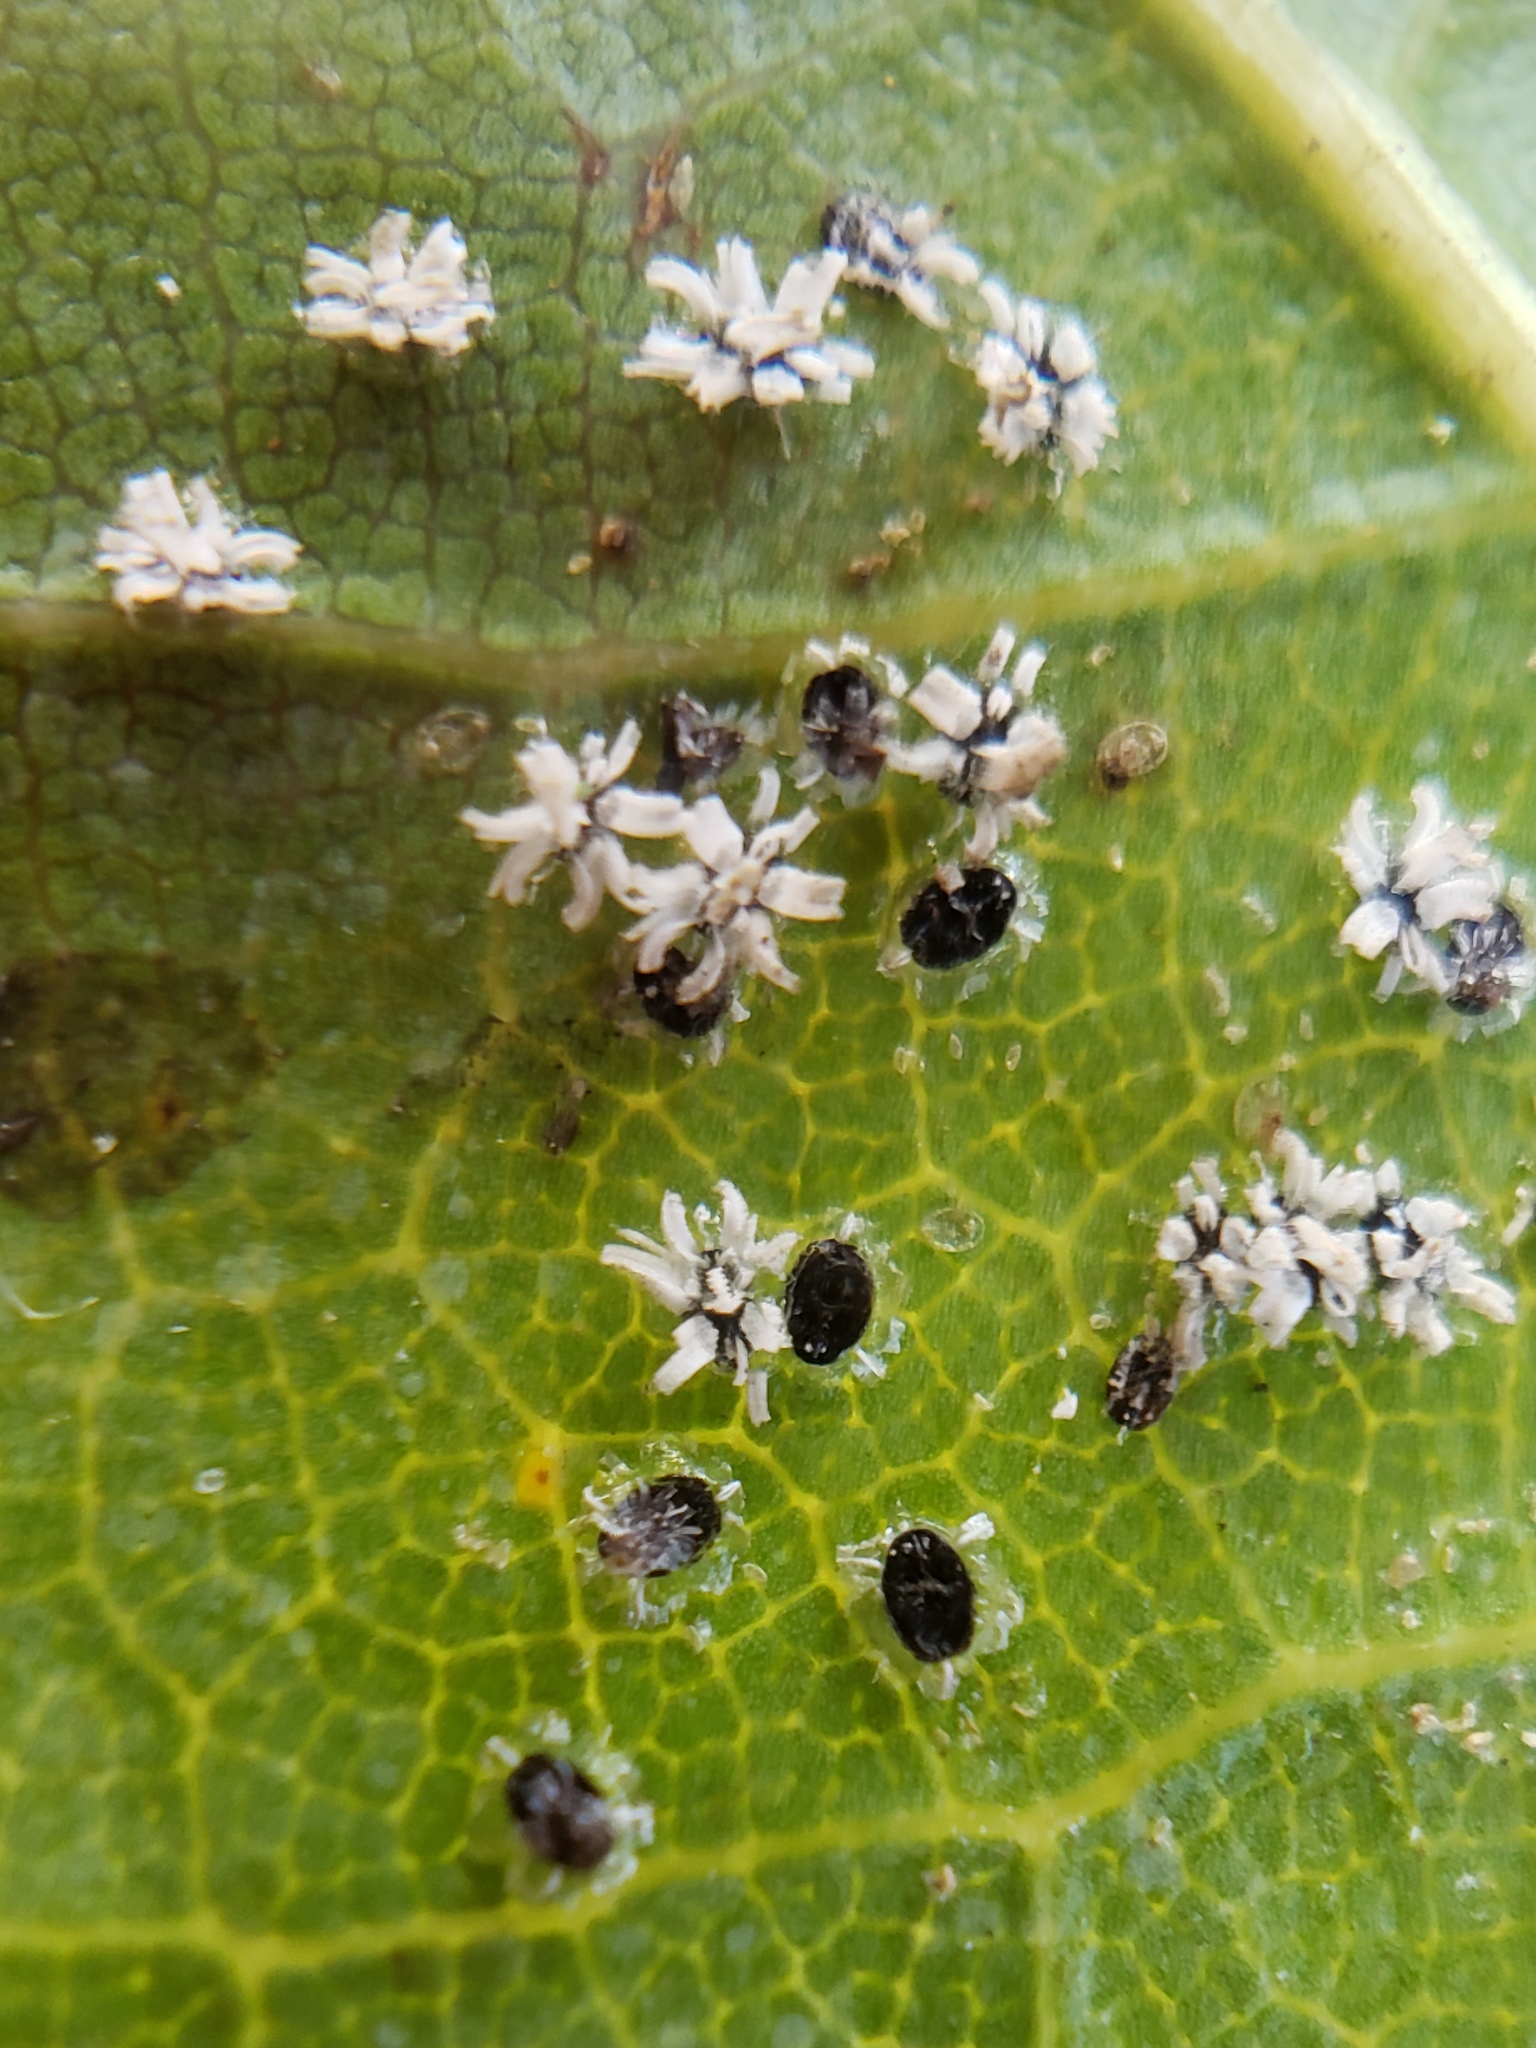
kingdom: Animalia
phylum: Arthropoda
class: Insecta
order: Hemiptera
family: Aleyrodidae
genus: Aleuroplatus
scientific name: Aleuroplatus coronata
